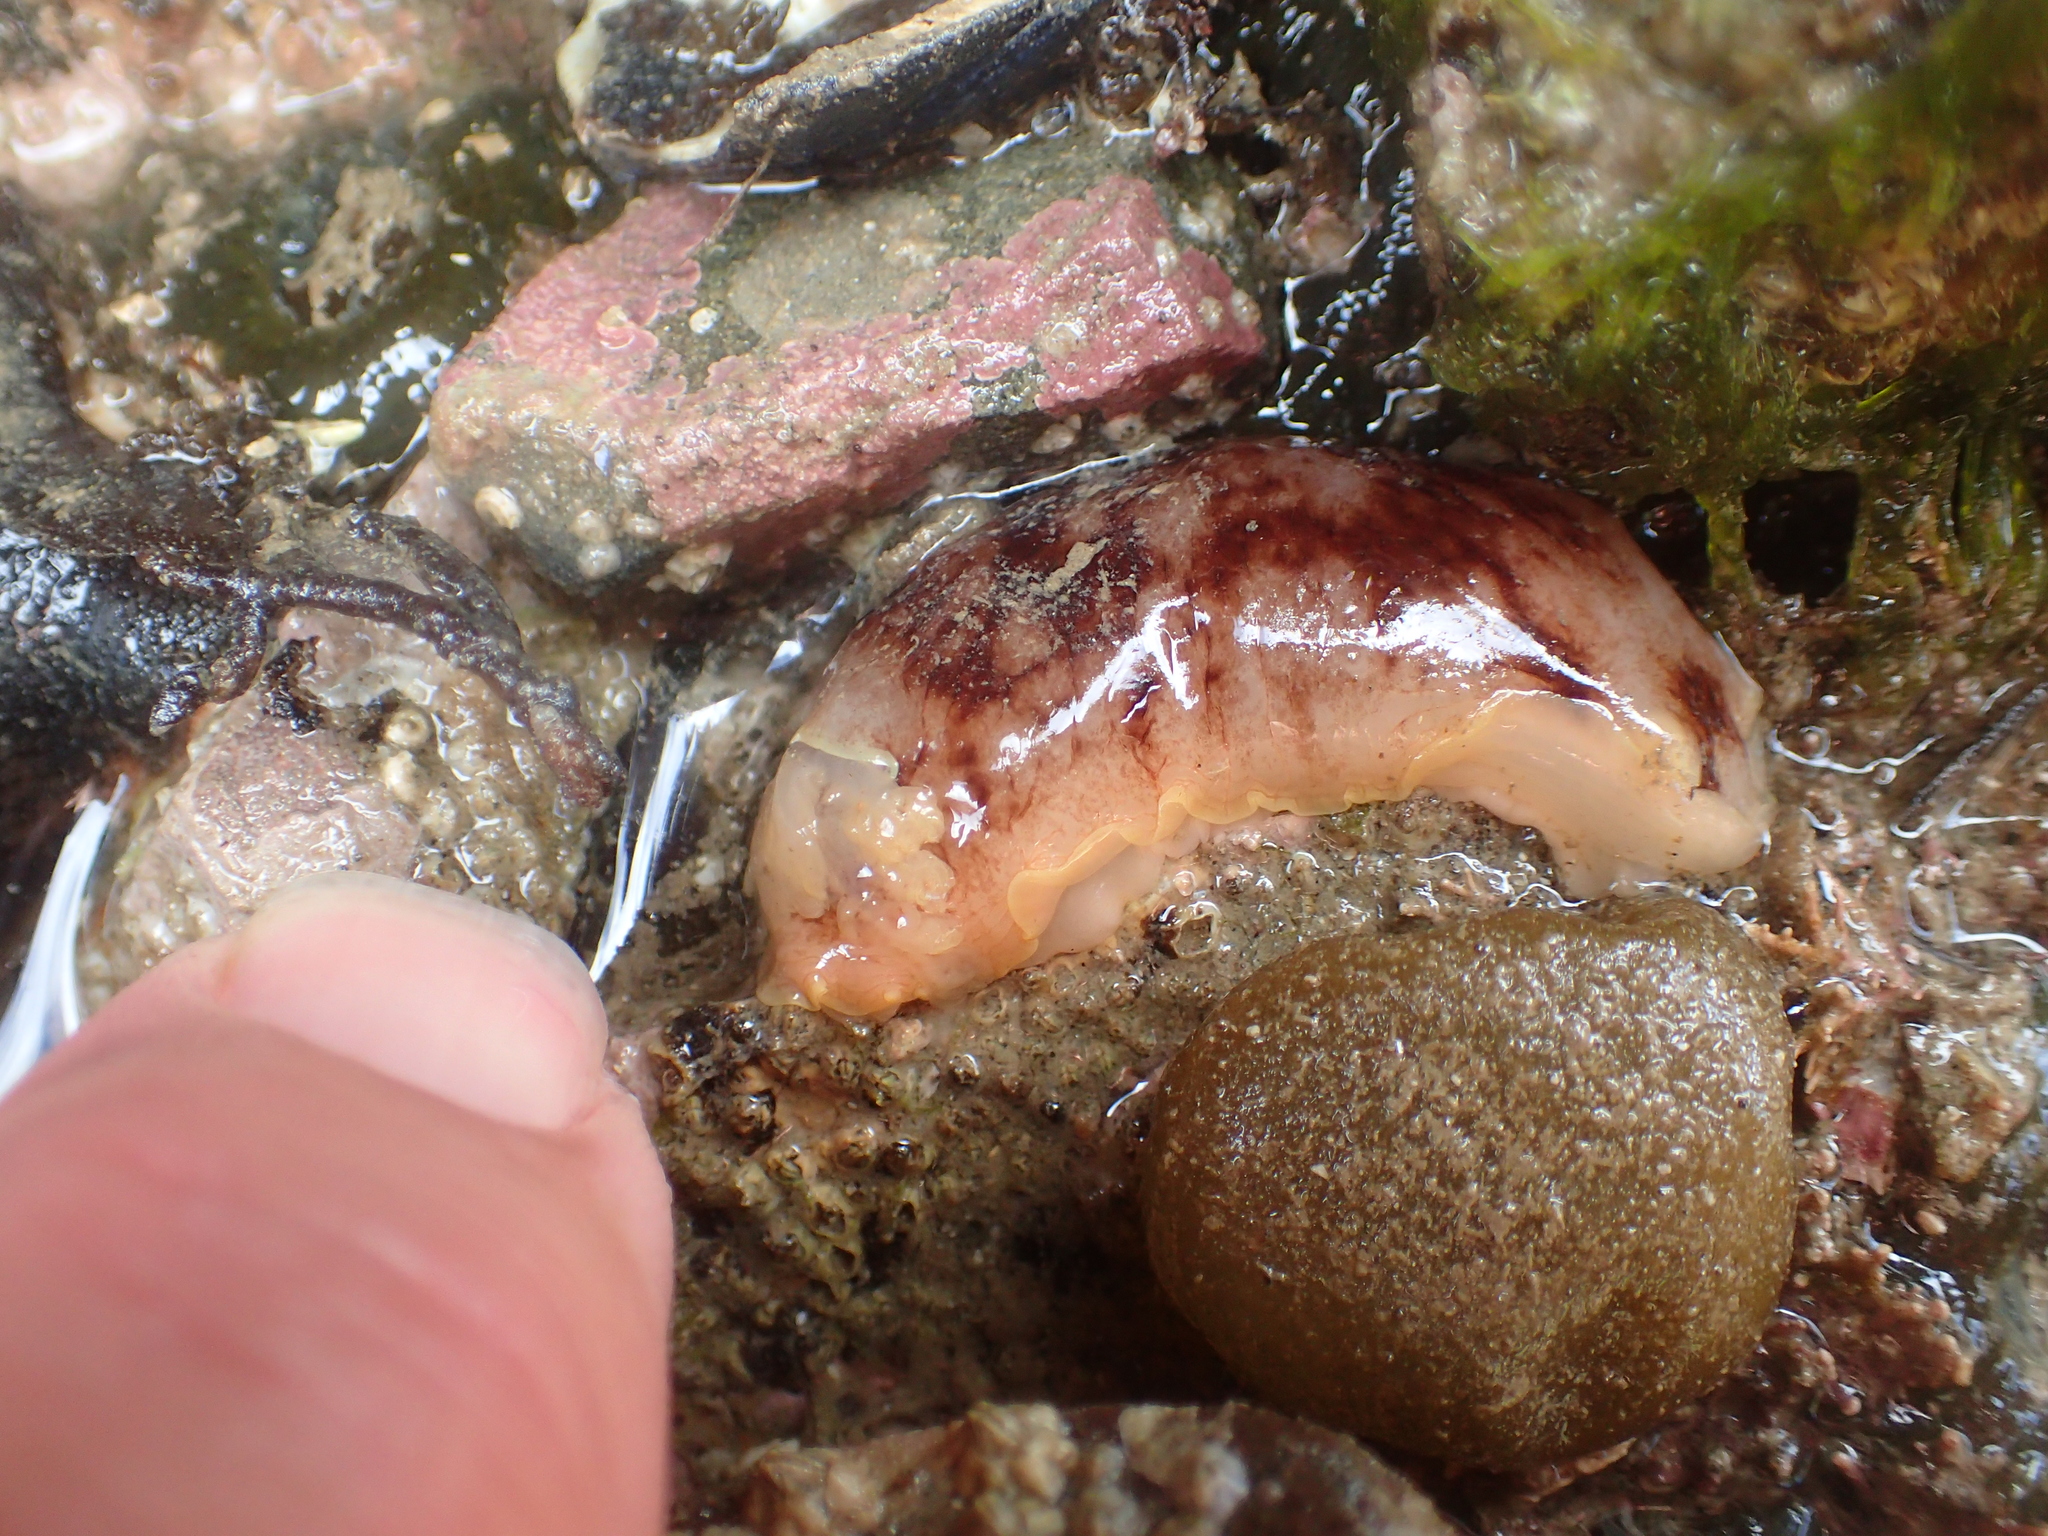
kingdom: Animalia
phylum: Mollusca
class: Gastropoda
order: Nudibranchia
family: Dorididae
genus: Aphelodoris
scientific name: Aphelodoris luctuosa
